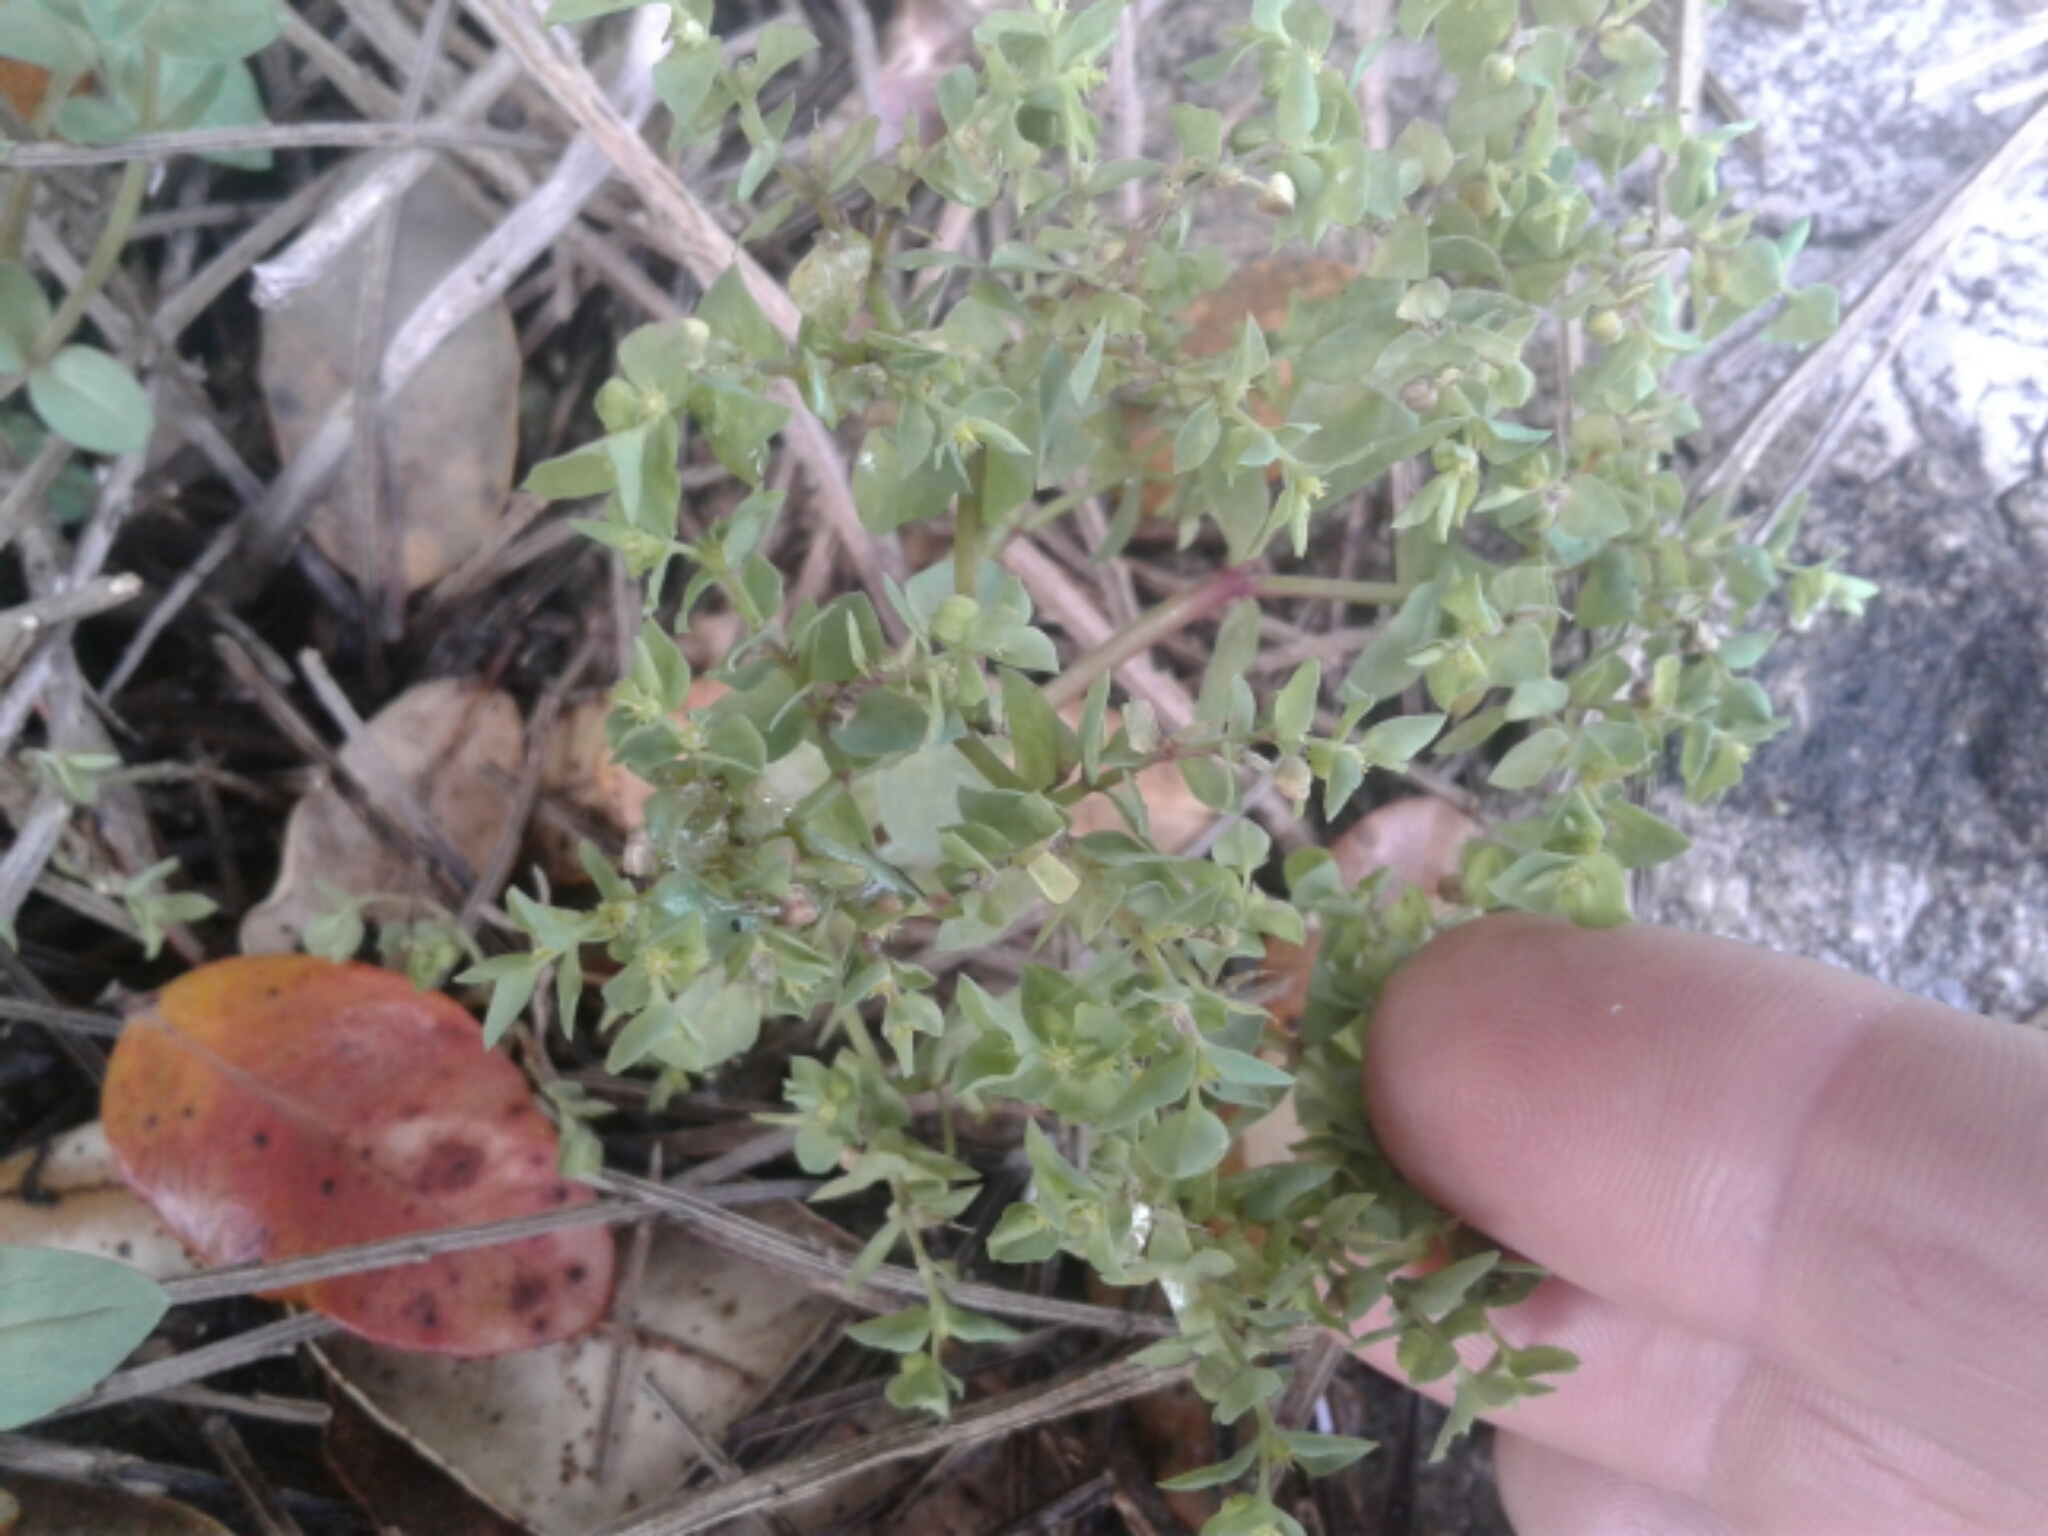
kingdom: Plantae
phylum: Tracheophyta
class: Magnoliopsida
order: Malpighiales
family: Euphorbiaceae
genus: Euphorbia
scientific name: Euphorbia peplus
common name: Petty spurge
